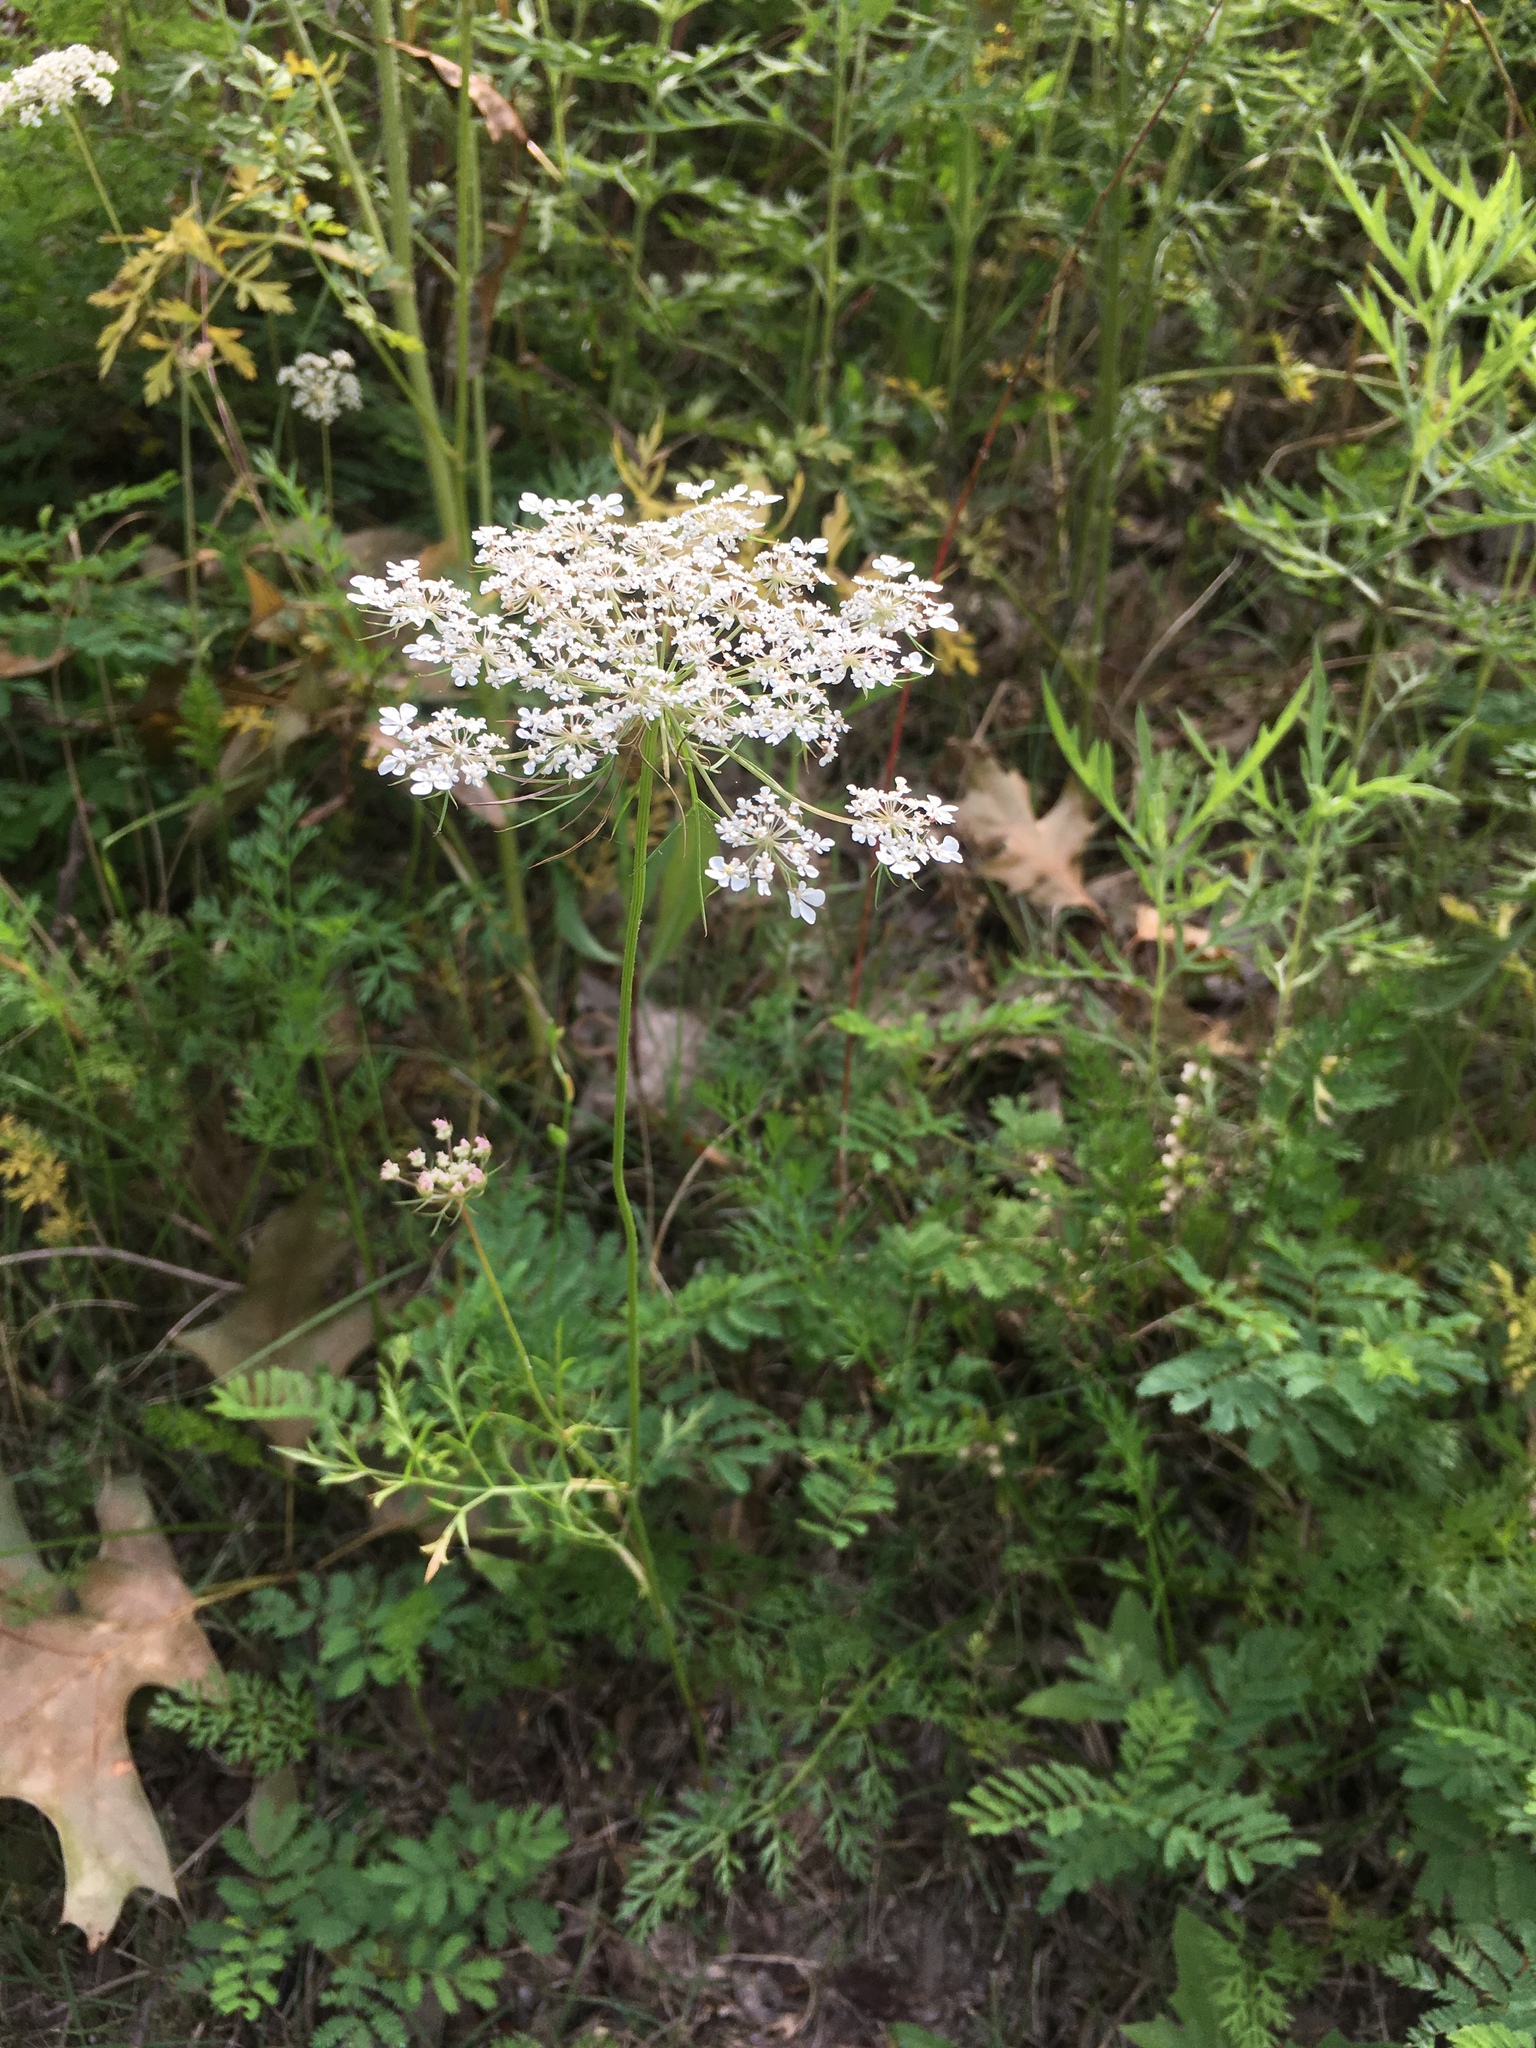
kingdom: Plantae
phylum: Tracheophyta
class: Magnoliopsida
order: Apiales
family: Apiaceae
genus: Daucus
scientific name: Daucus carota
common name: Wild carrot
